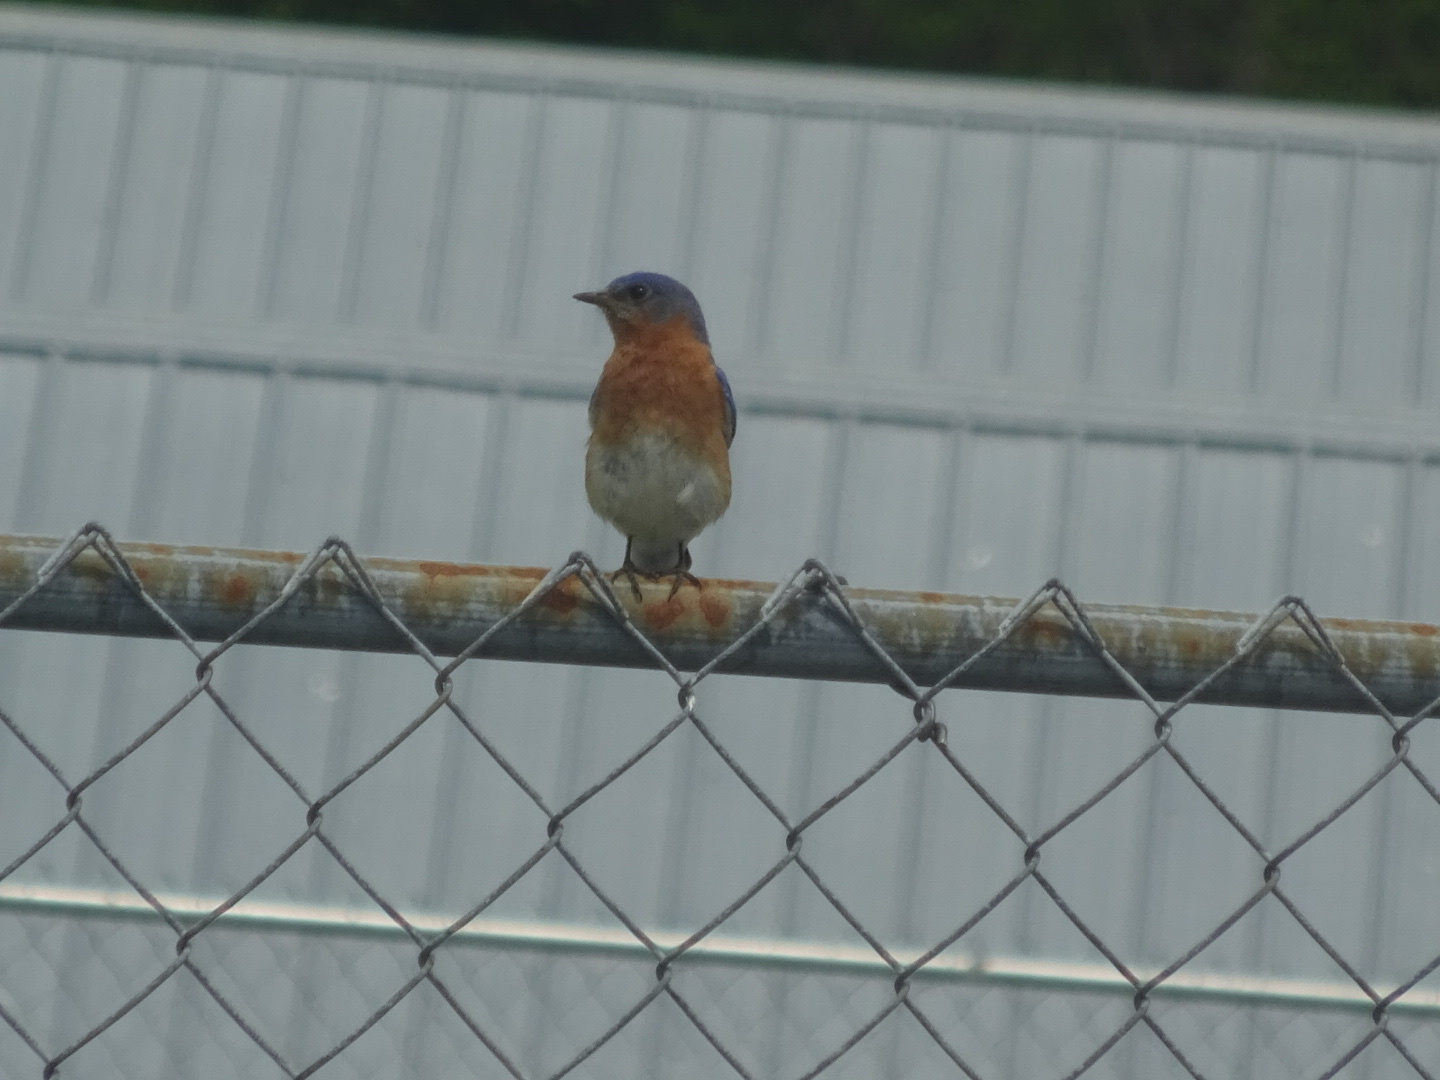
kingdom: Animalia
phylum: Chordata
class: Aves
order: Passeriformes
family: Turdidae
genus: Sialia
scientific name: Sialia sialis
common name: Eastern bluebird
